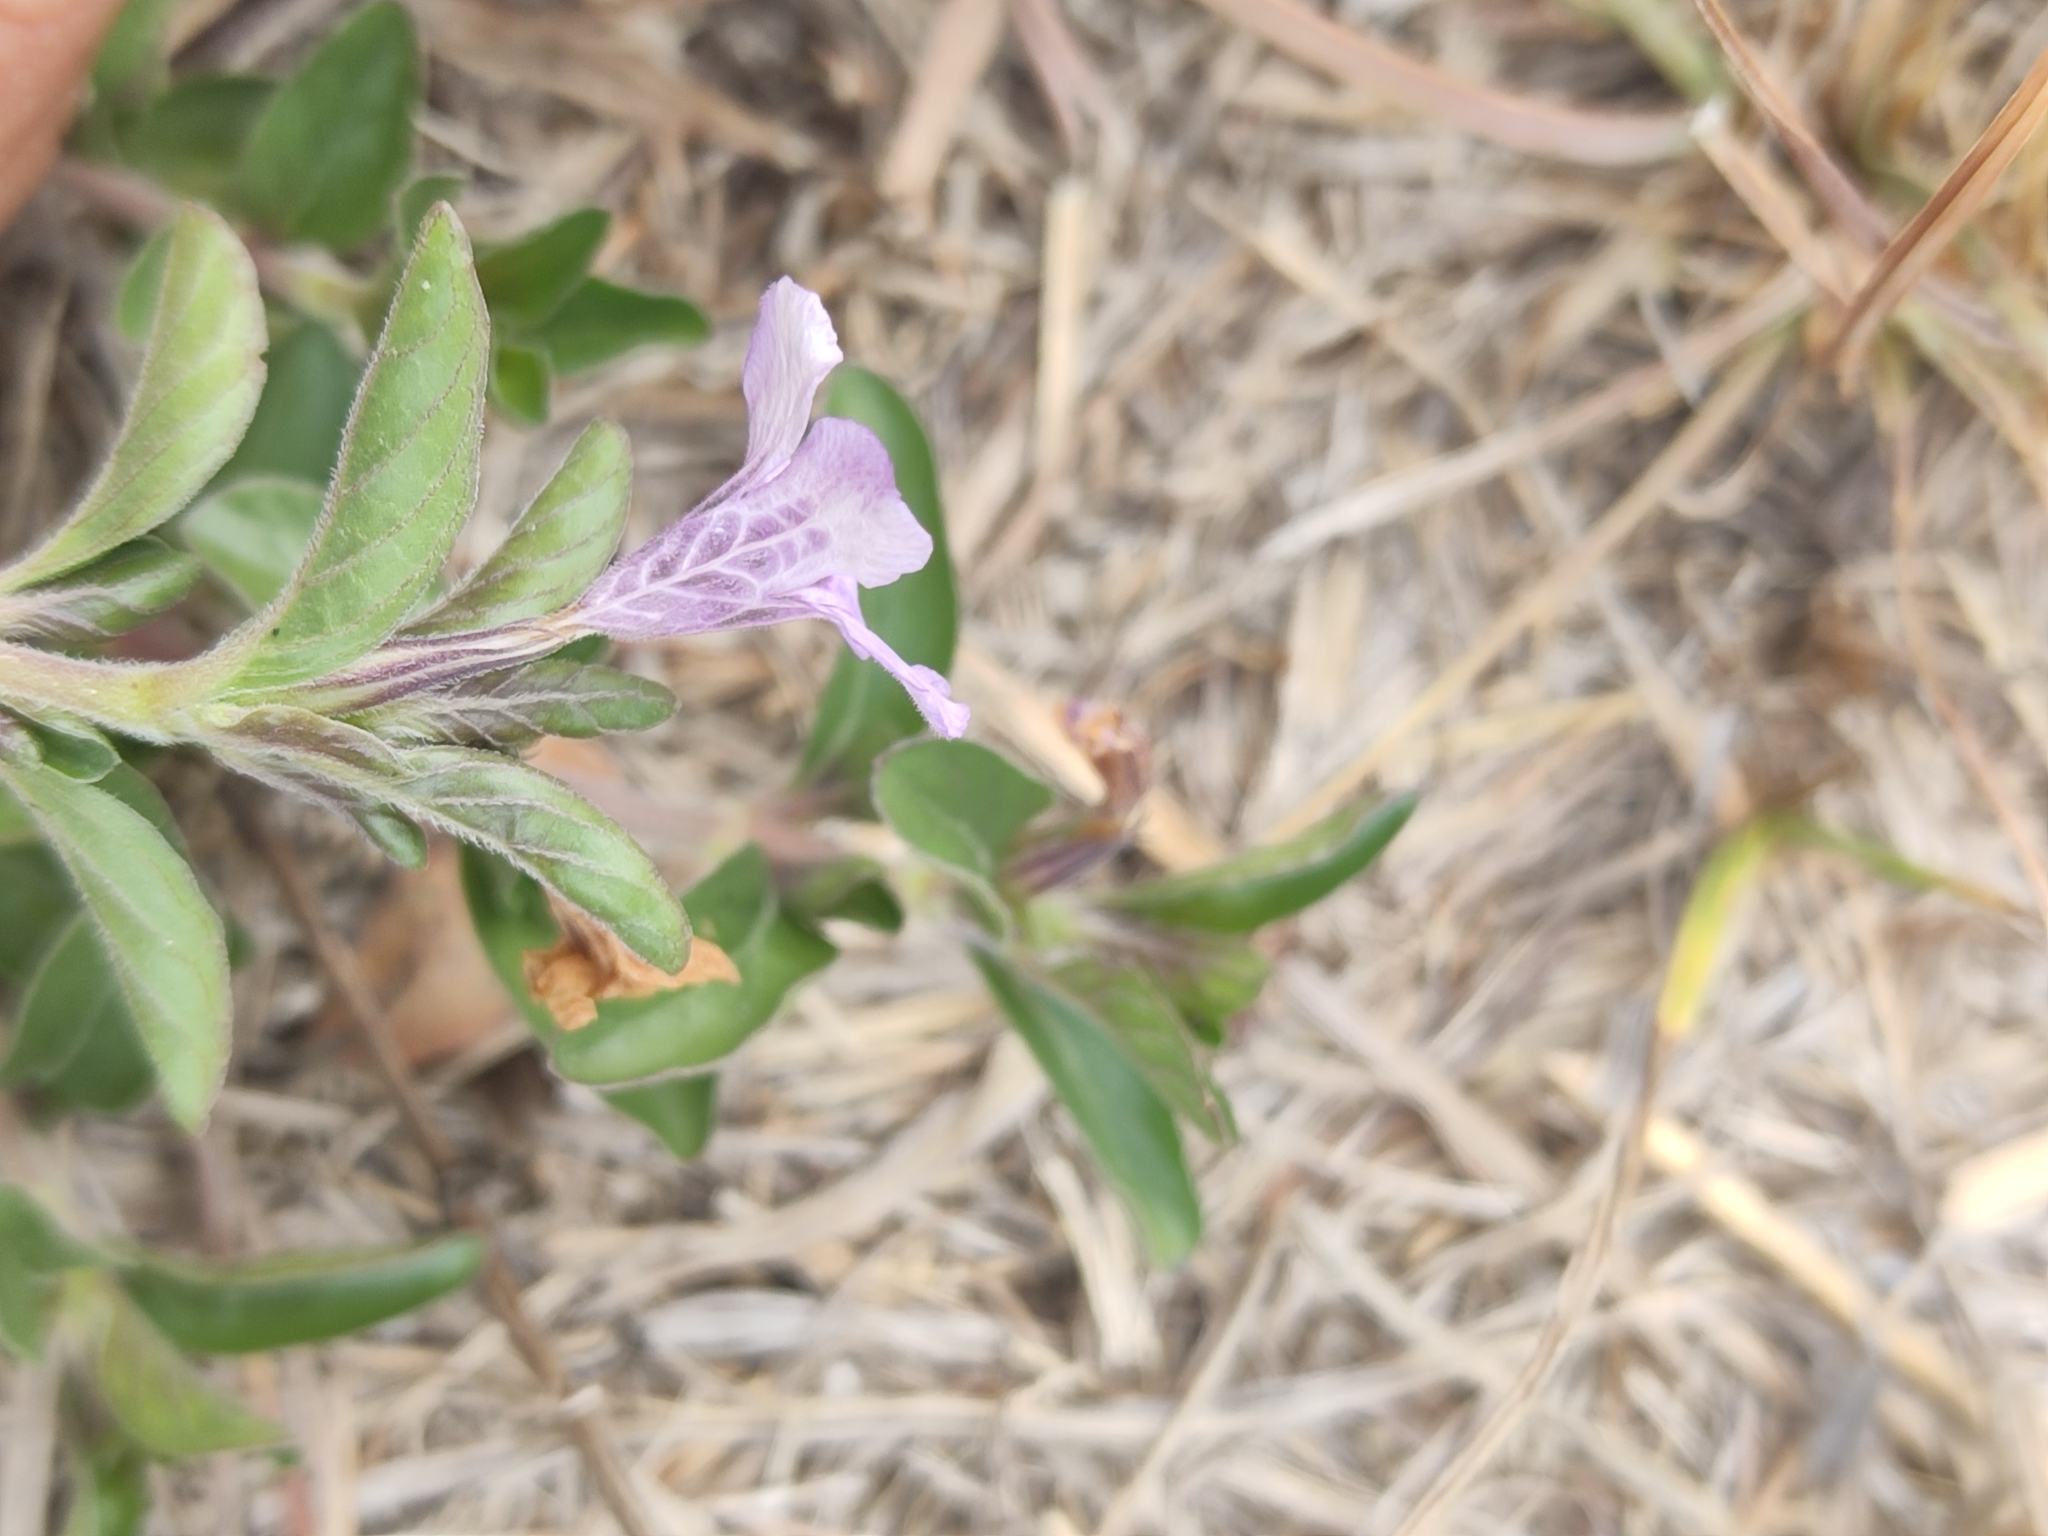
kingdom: Plantae
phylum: Tracheophyta
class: Magnoliopsida
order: Lamiales
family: Acanthaceae
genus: Dyschoriste
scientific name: Dyschoriste microphylla
